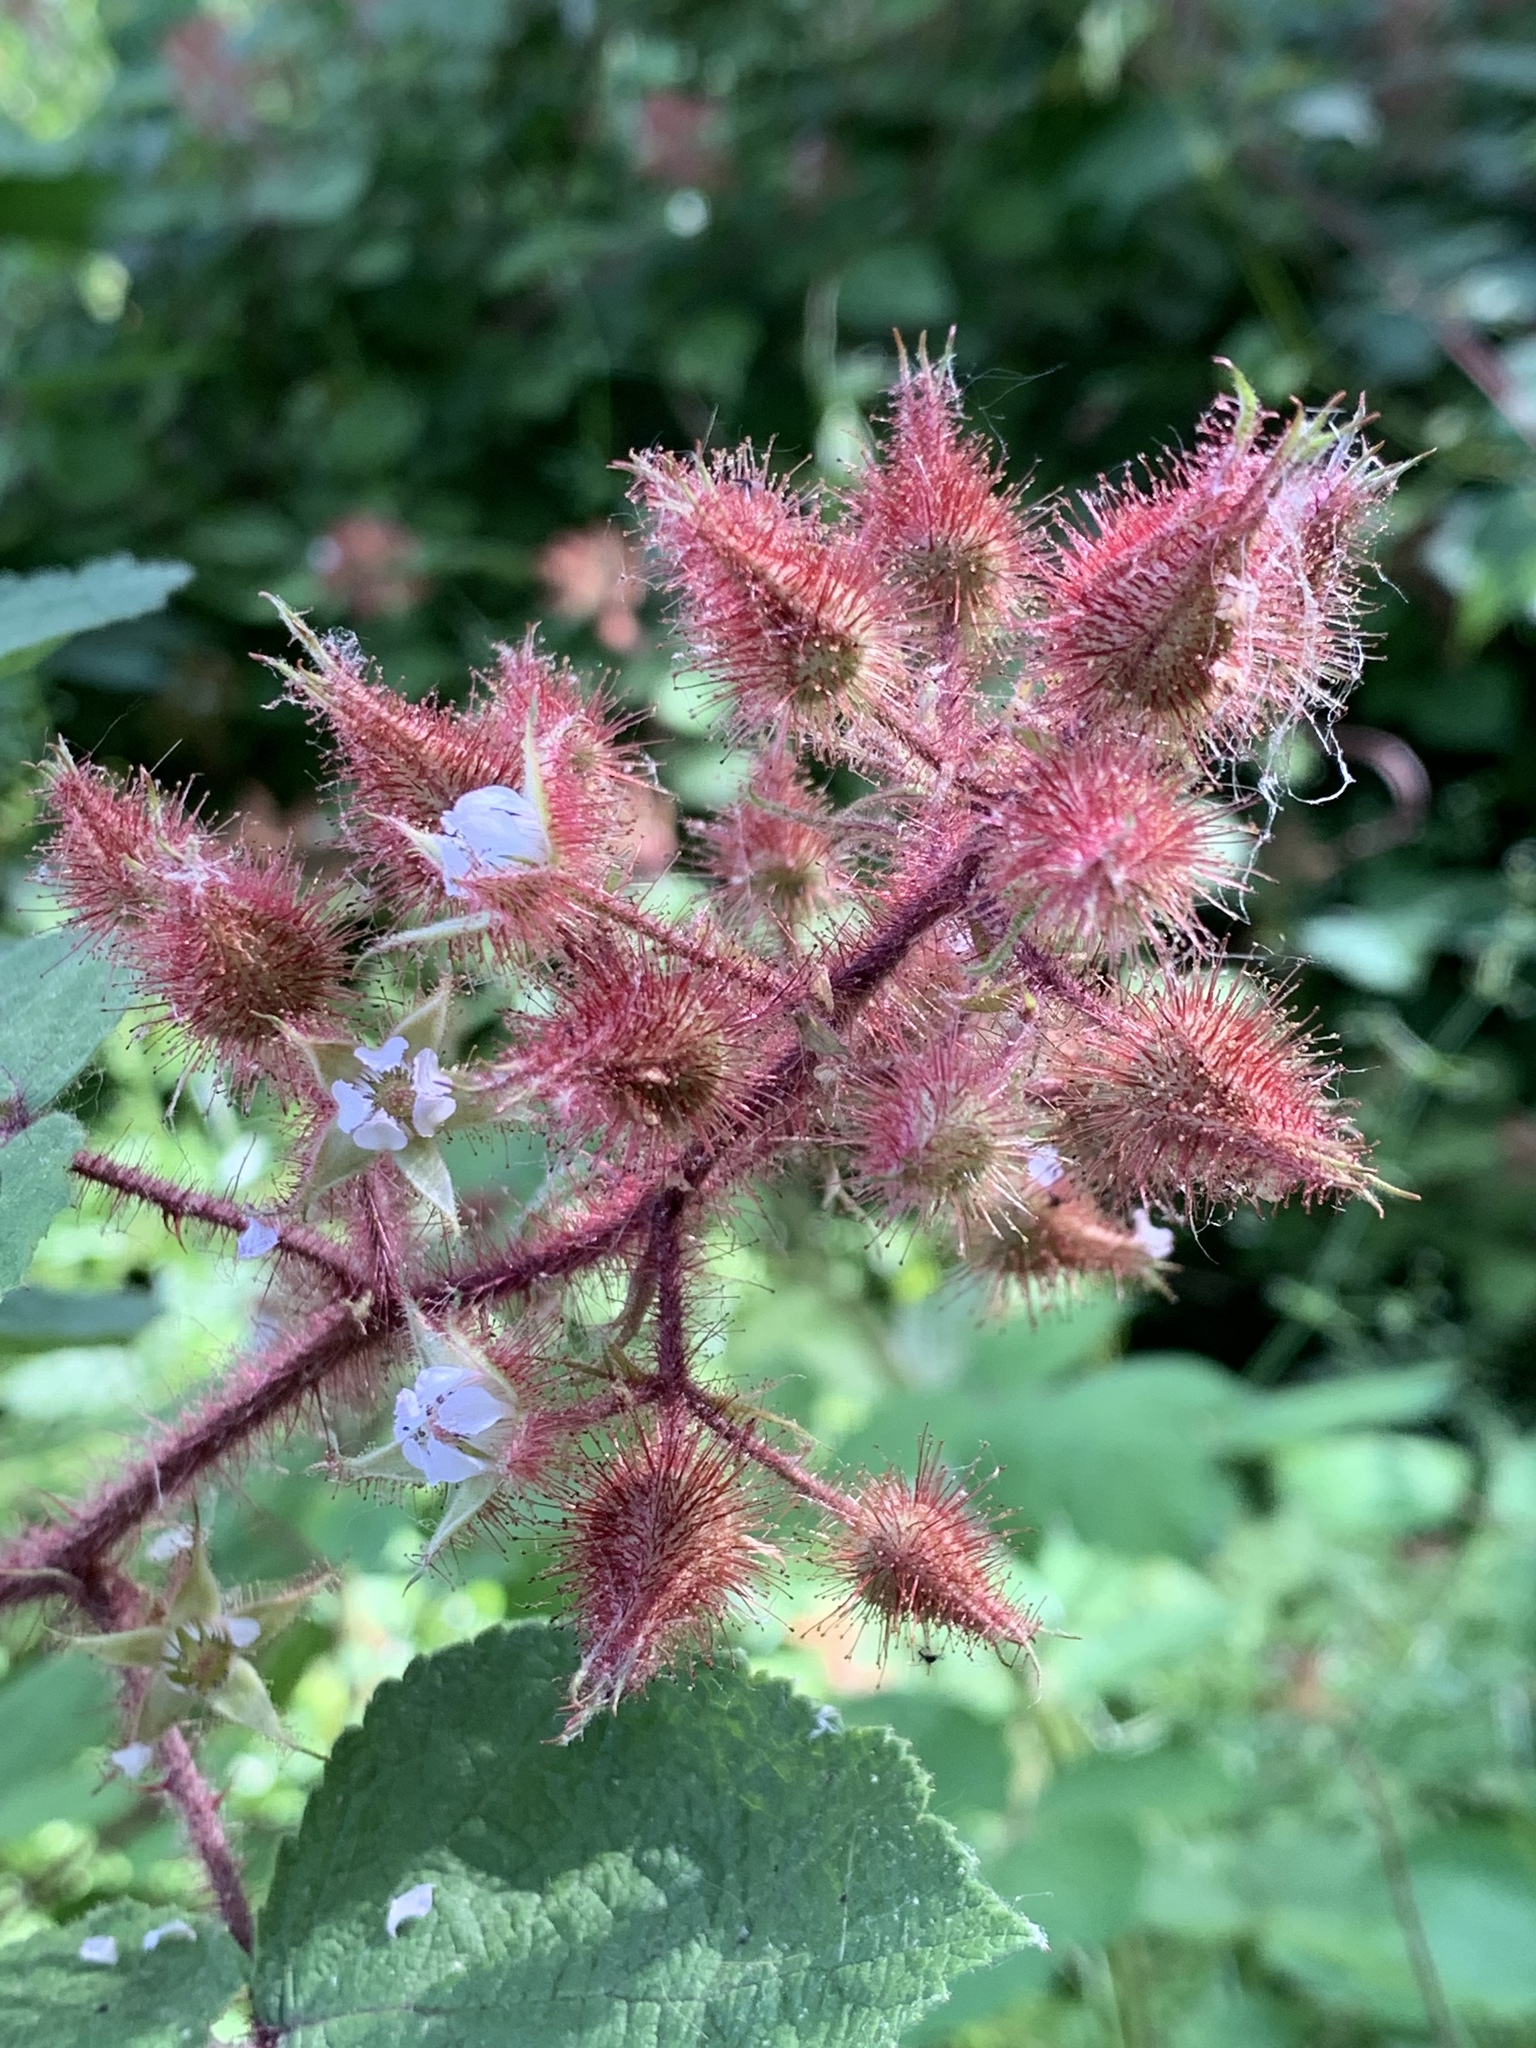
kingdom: Plantae
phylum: Tracheophyta
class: Magnoliopsida
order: Rosales
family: Rosaceae
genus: Rubus
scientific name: Rubus phoenicolasius
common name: Japanese wineberry
